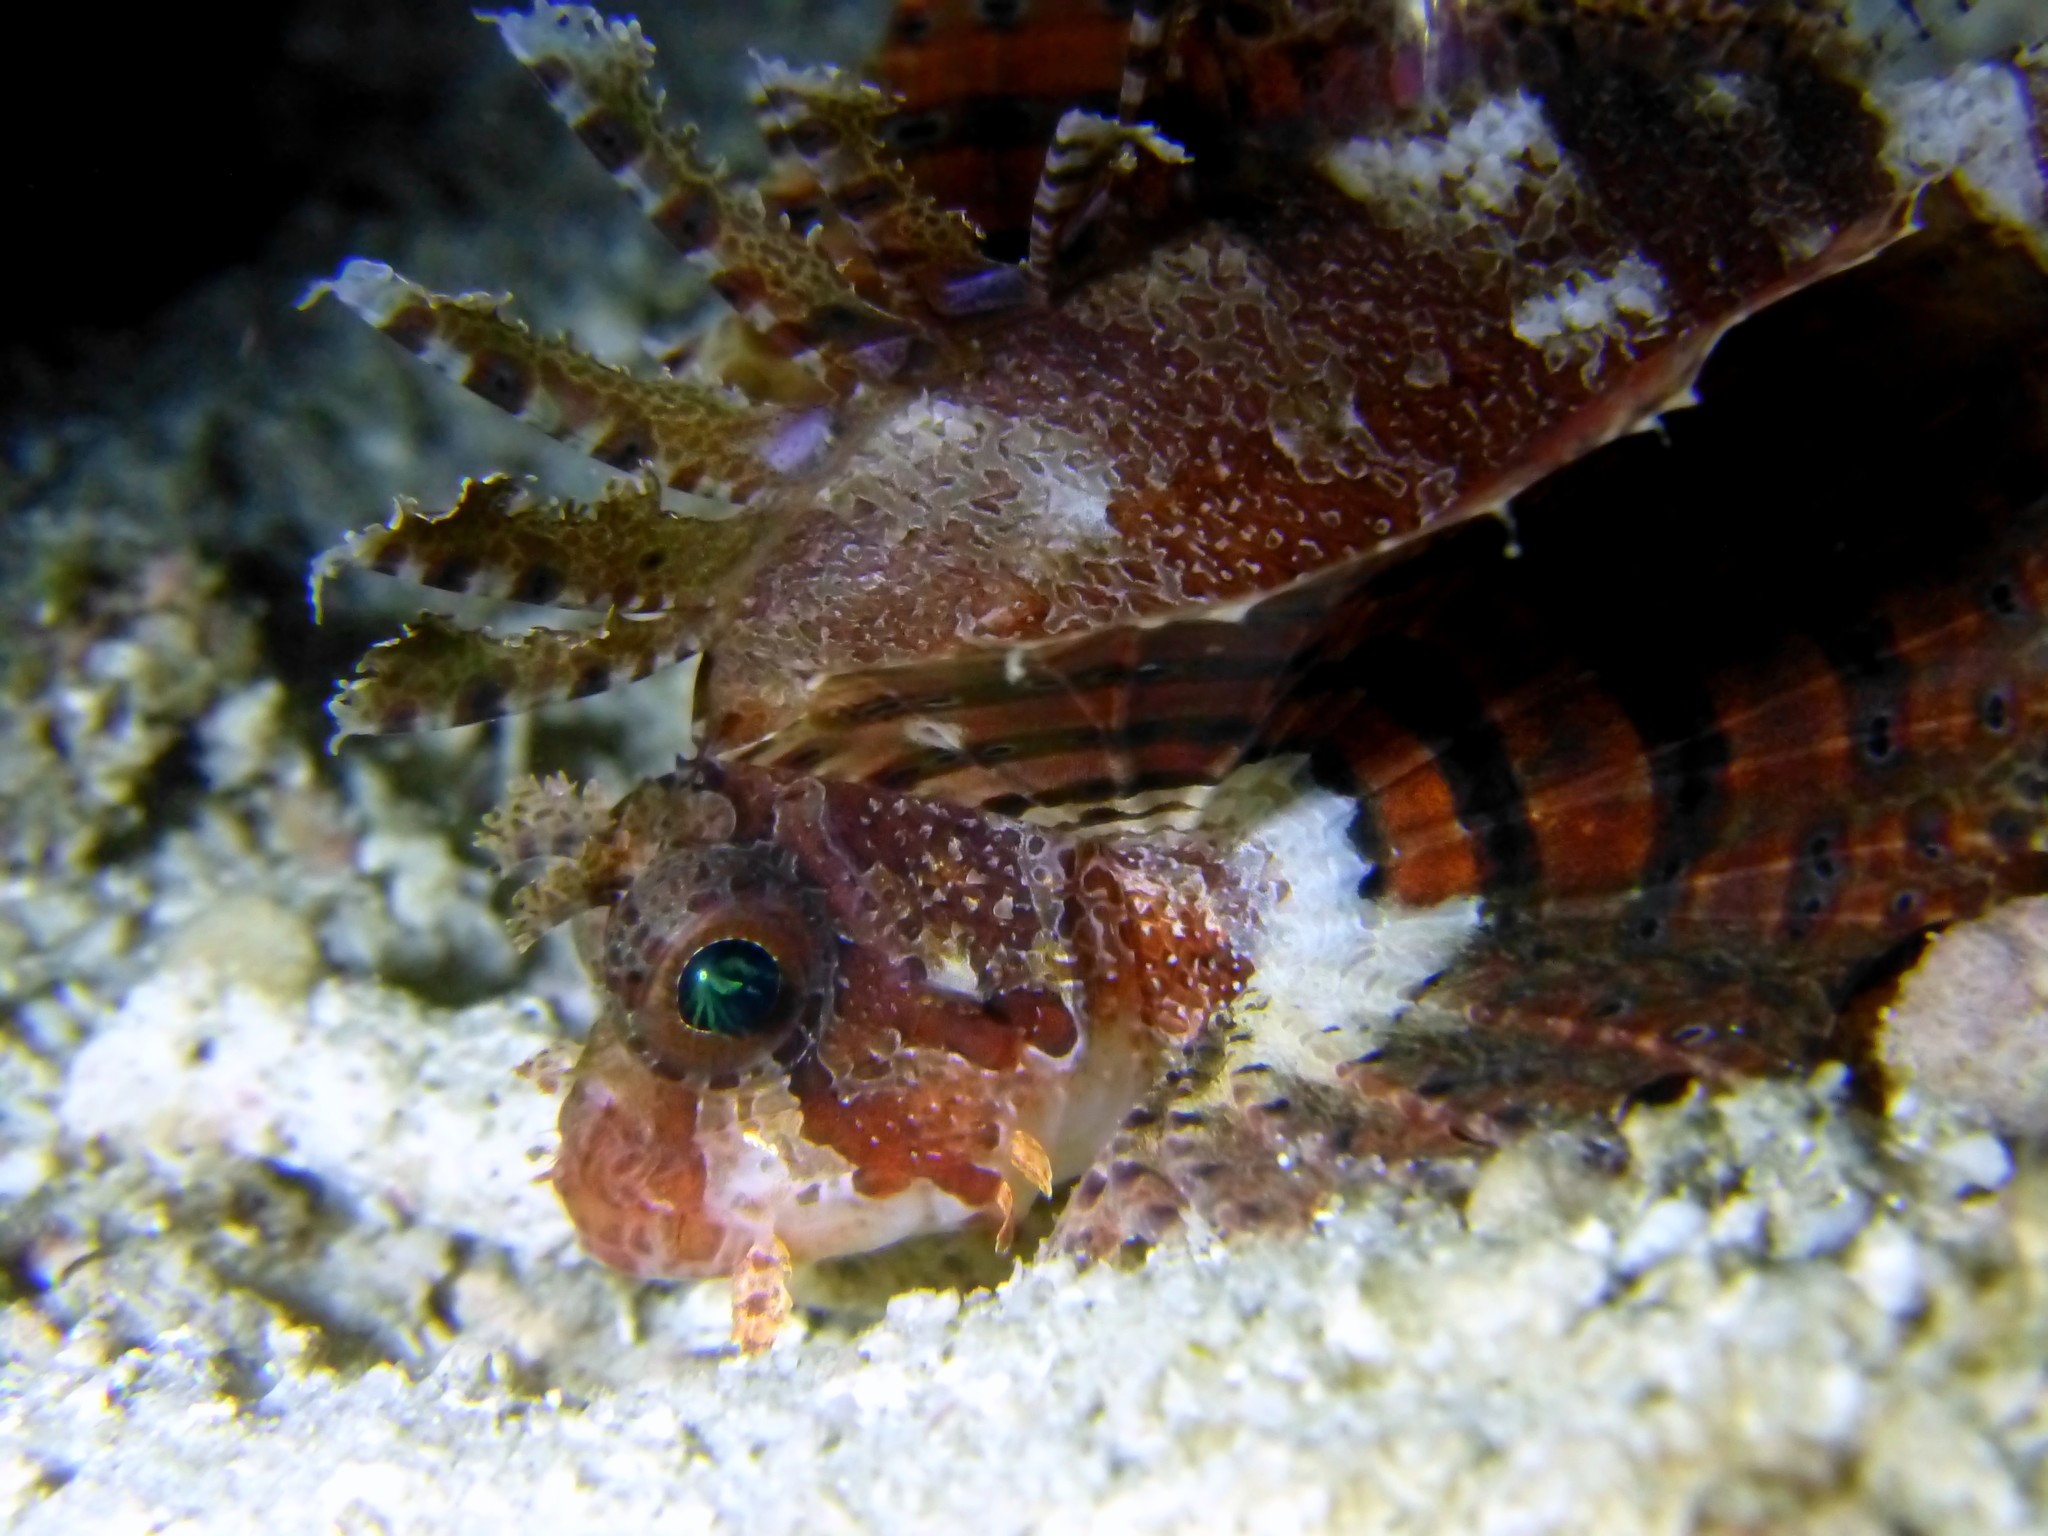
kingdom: Animalia
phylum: Chordata
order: Scorpaeniformes
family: Scorpaenidae
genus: Dendrochirus
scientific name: Dendrochirus brachypterus
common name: Shortfin turkeyfish
